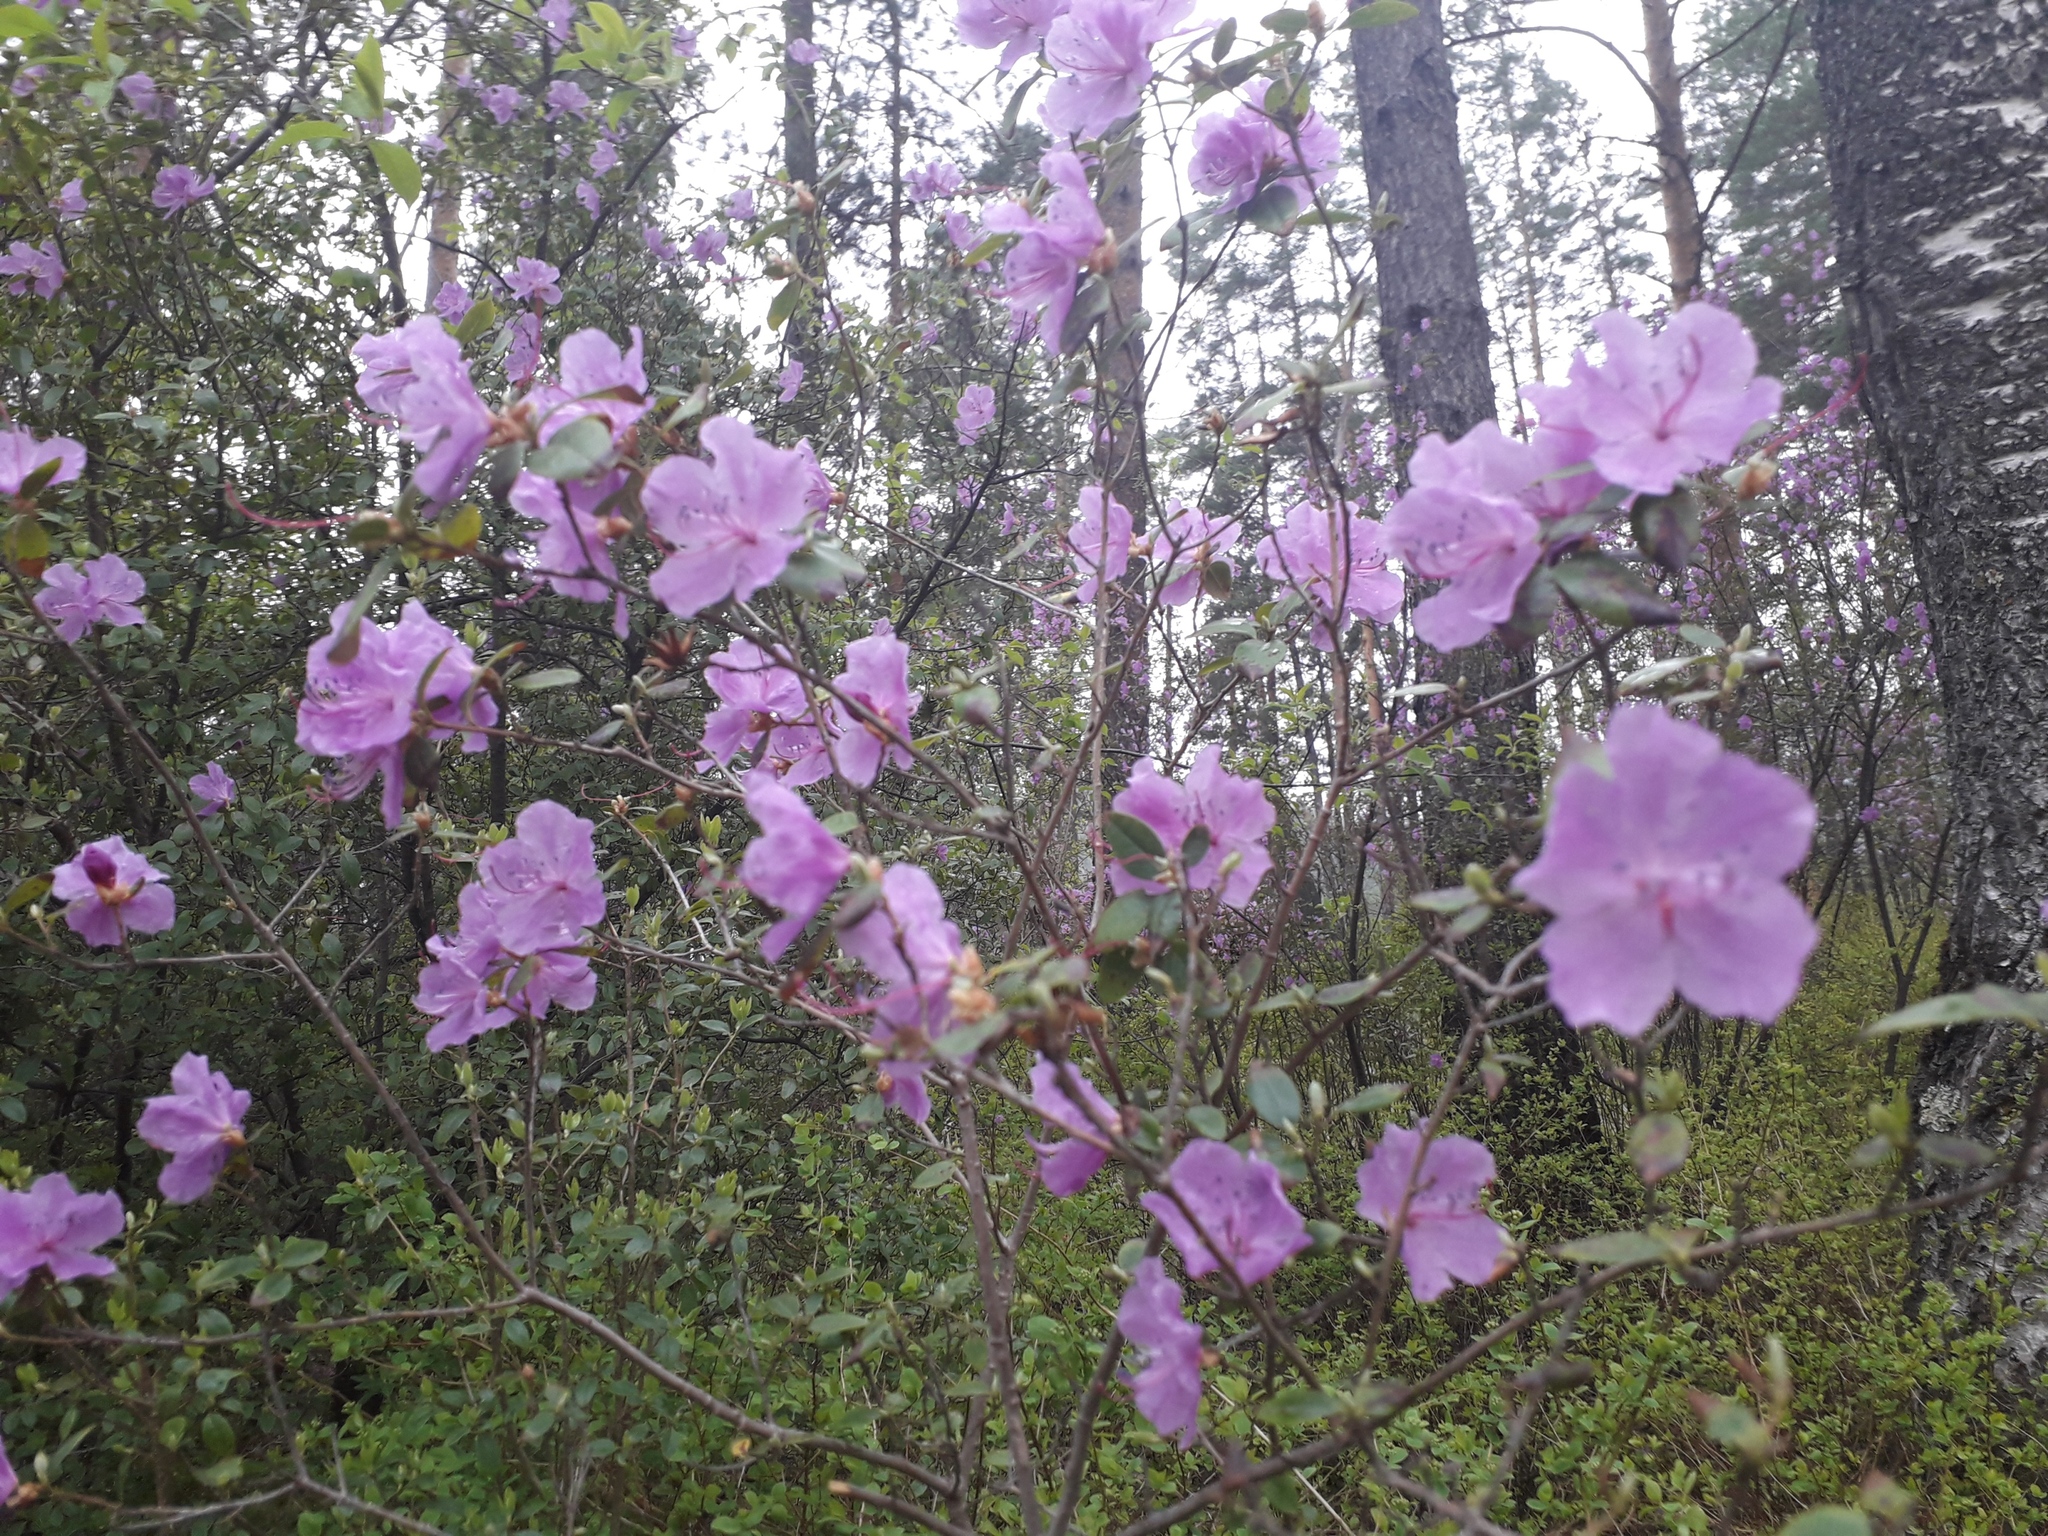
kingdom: Plantae
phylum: Tracheophyta
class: Magnoliopsida
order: Ericales
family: Ericaceae
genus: Rhododendron
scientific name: Rhododendron dauricum
